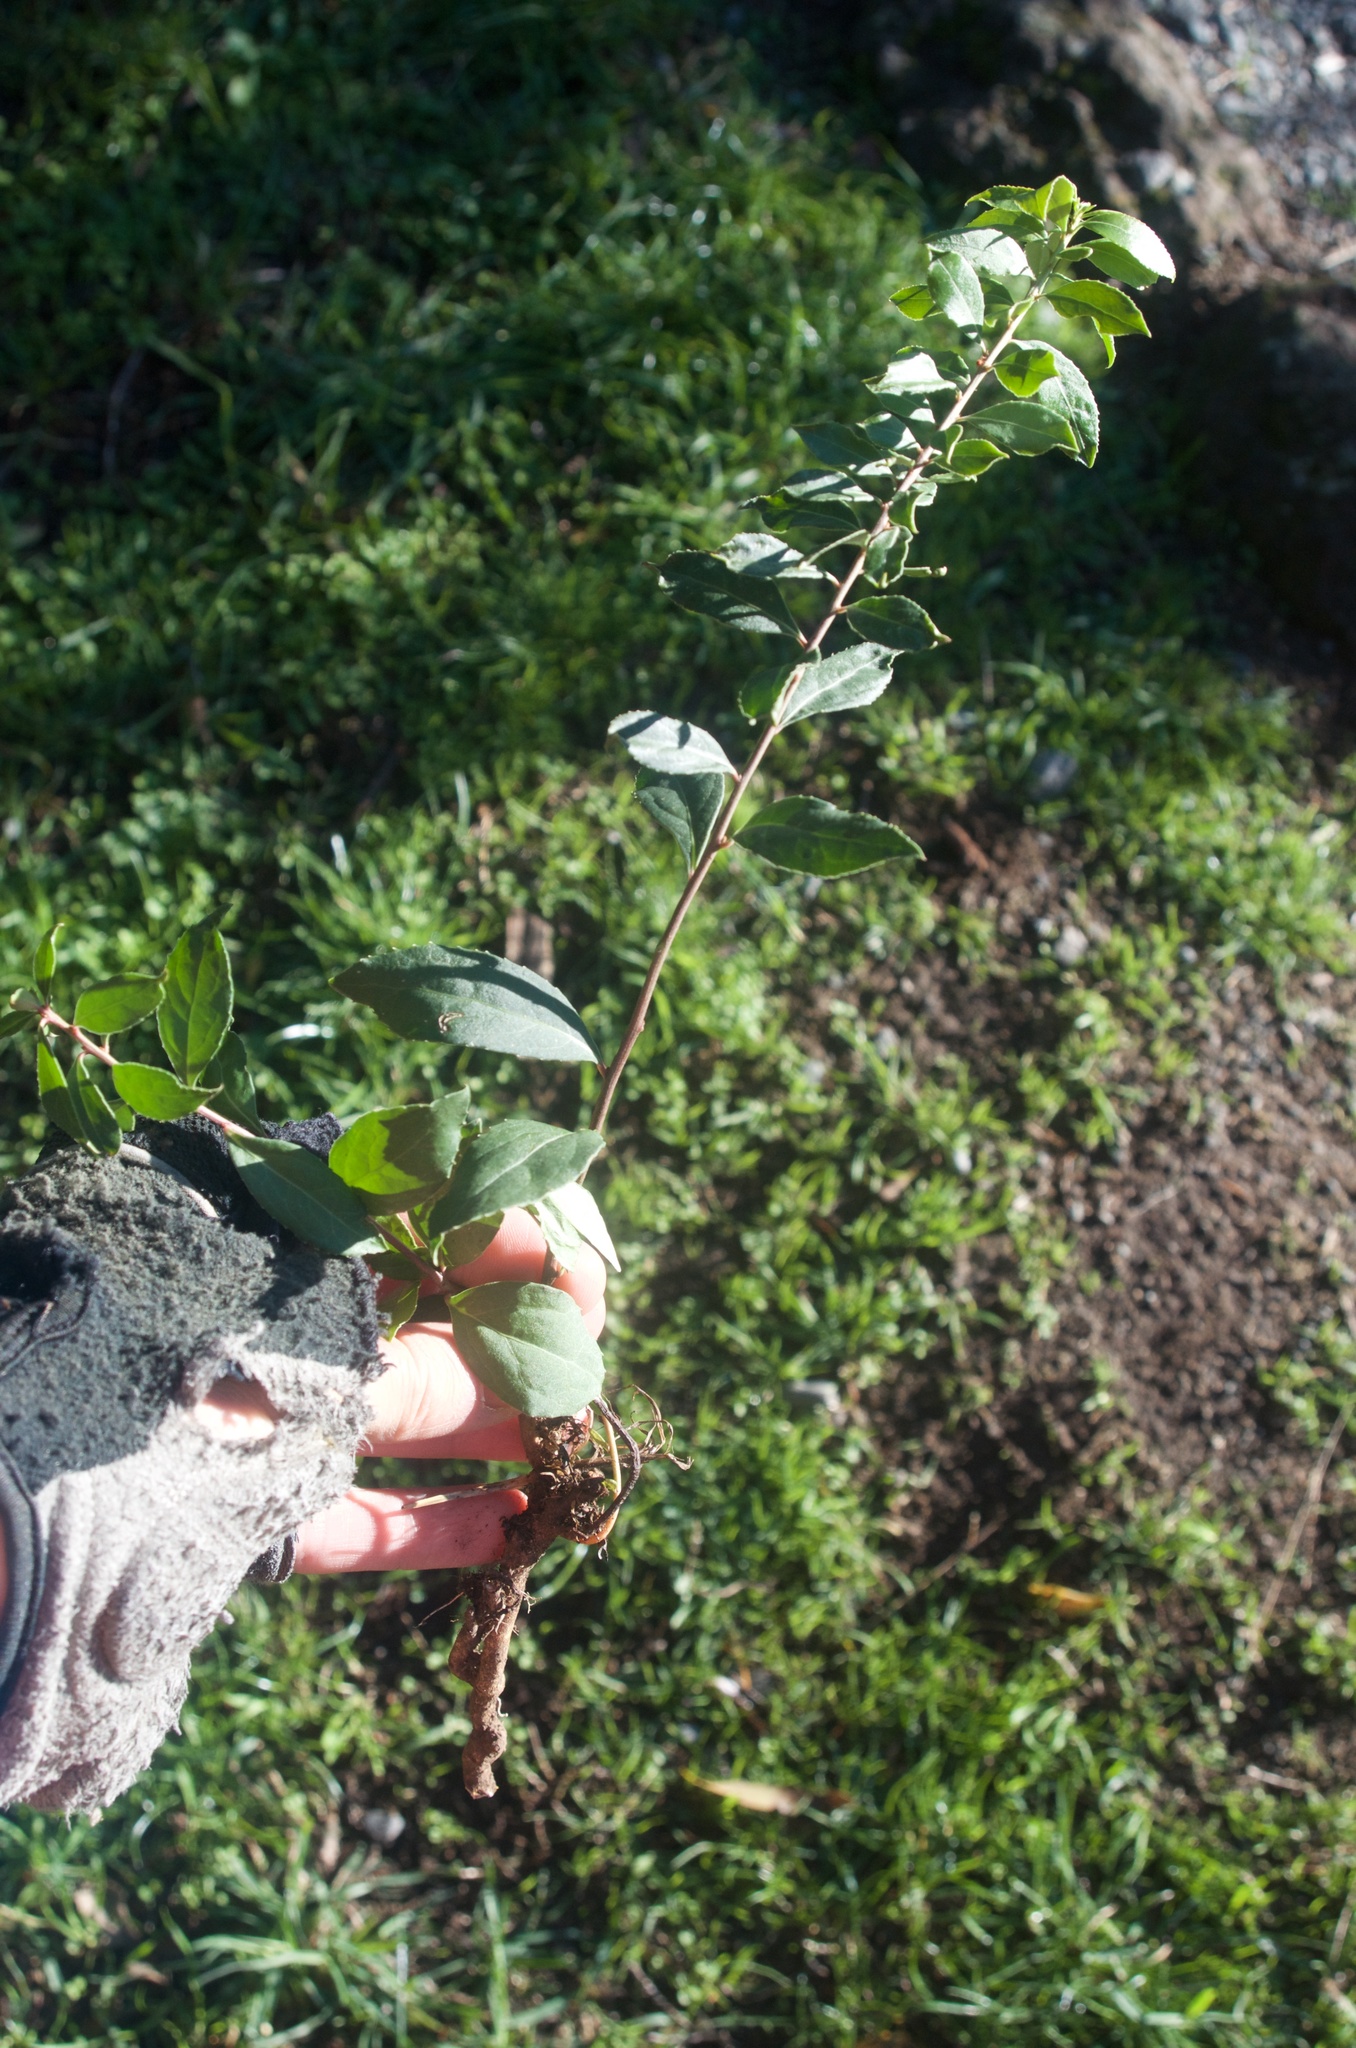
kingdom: Plantae
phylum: Tracheophyta
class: Magnoliopsida
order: Celastrales
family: Celastraceae
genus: Maytenus
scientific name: Maytenus boaria
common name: Mayten
